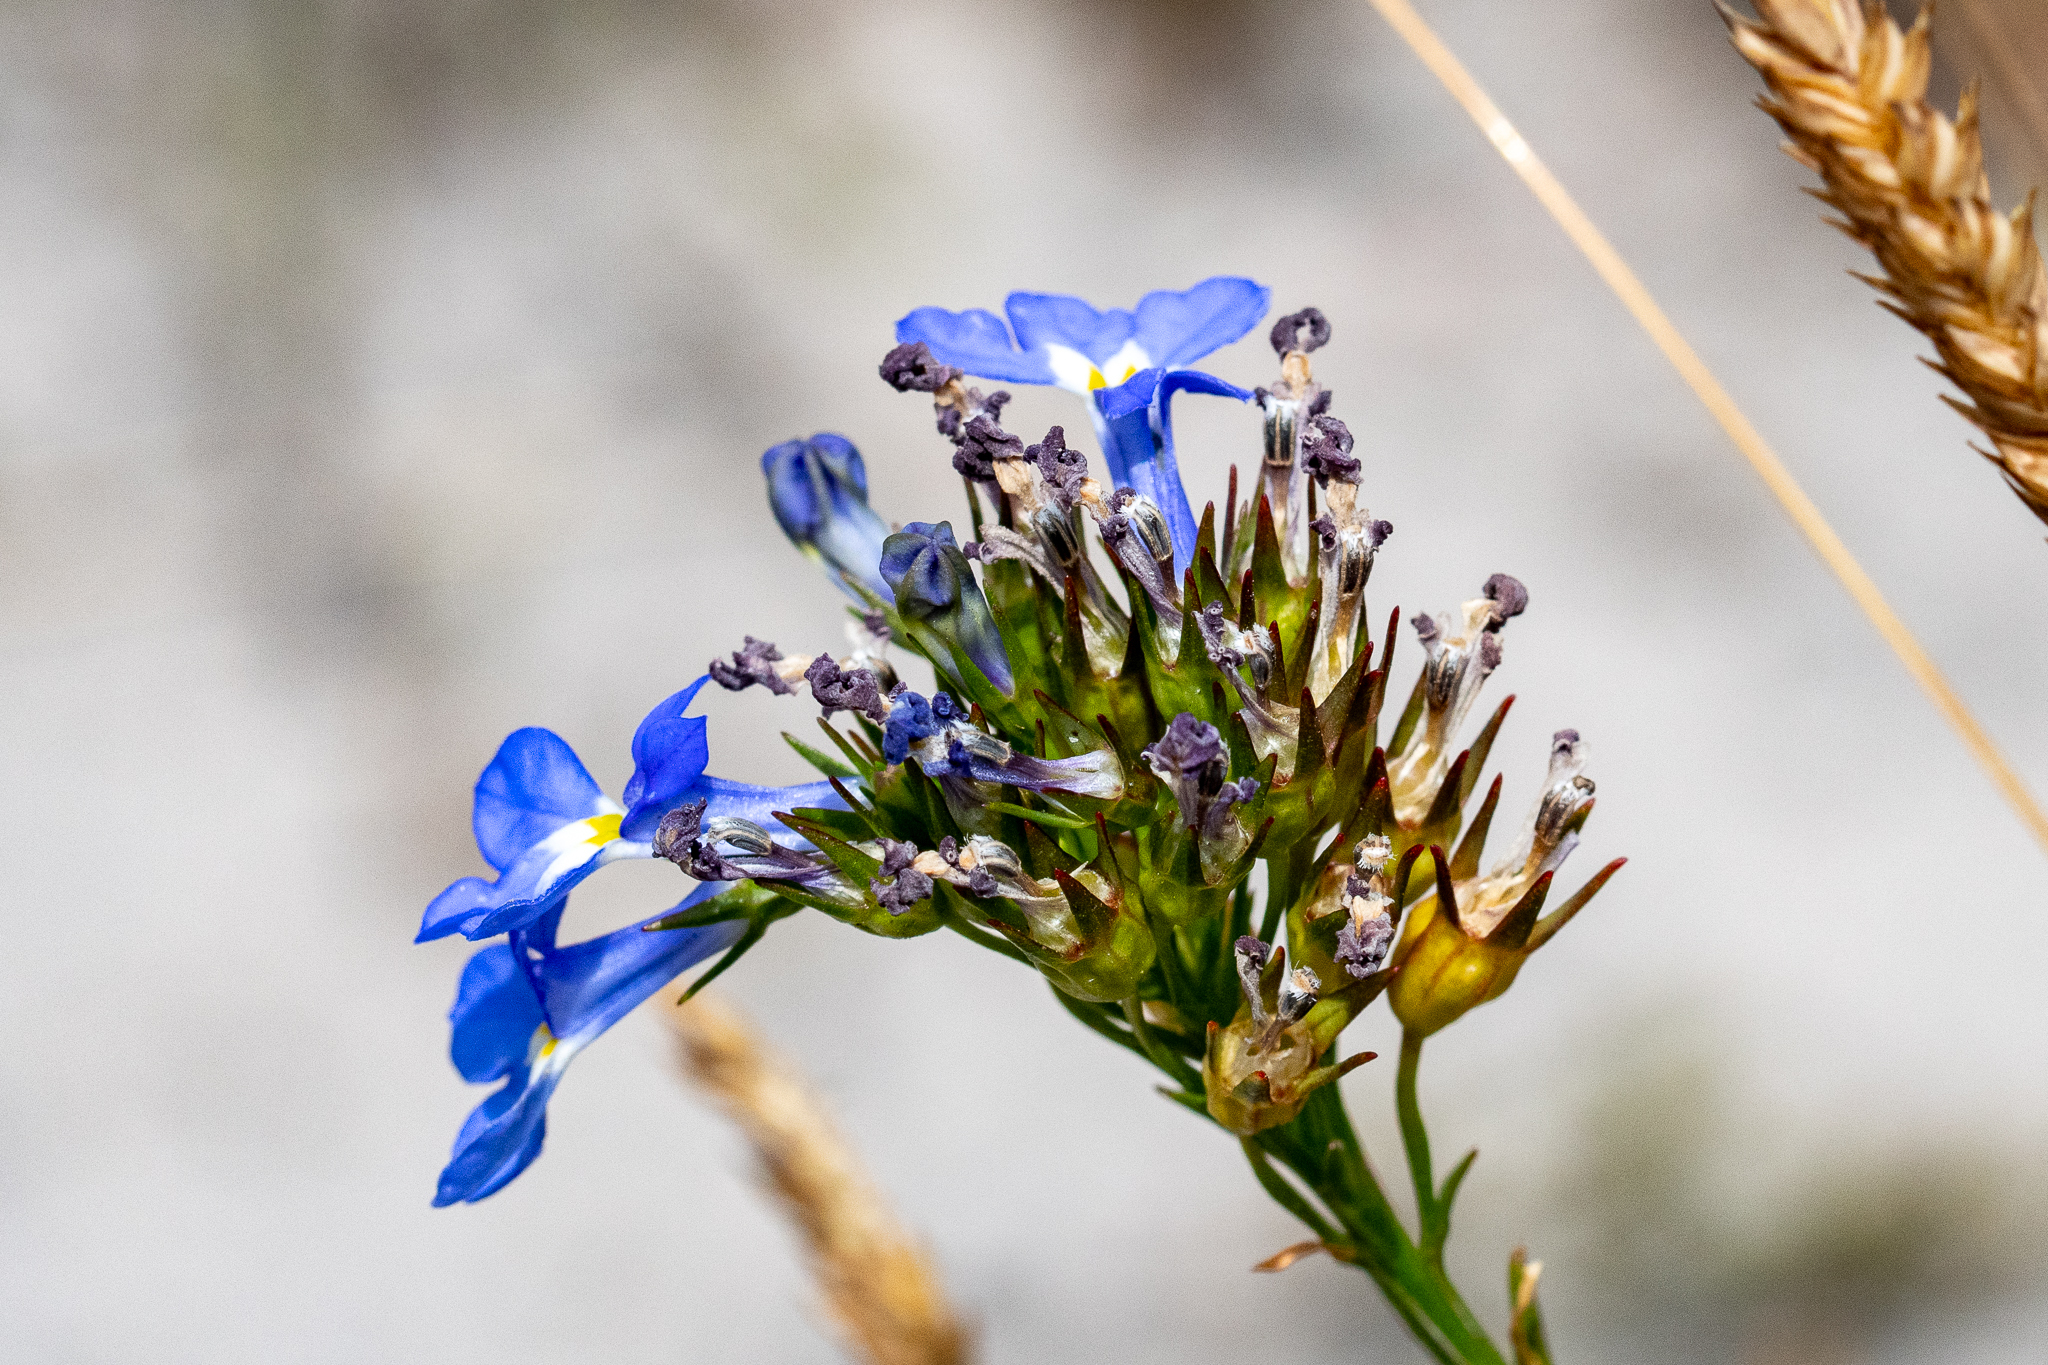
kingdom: Plantae
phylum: Tracheophyta
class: Magnoliopsida
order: Asterales
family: Campanulaceae
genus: Lobelia
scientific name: Lobelia comosa
